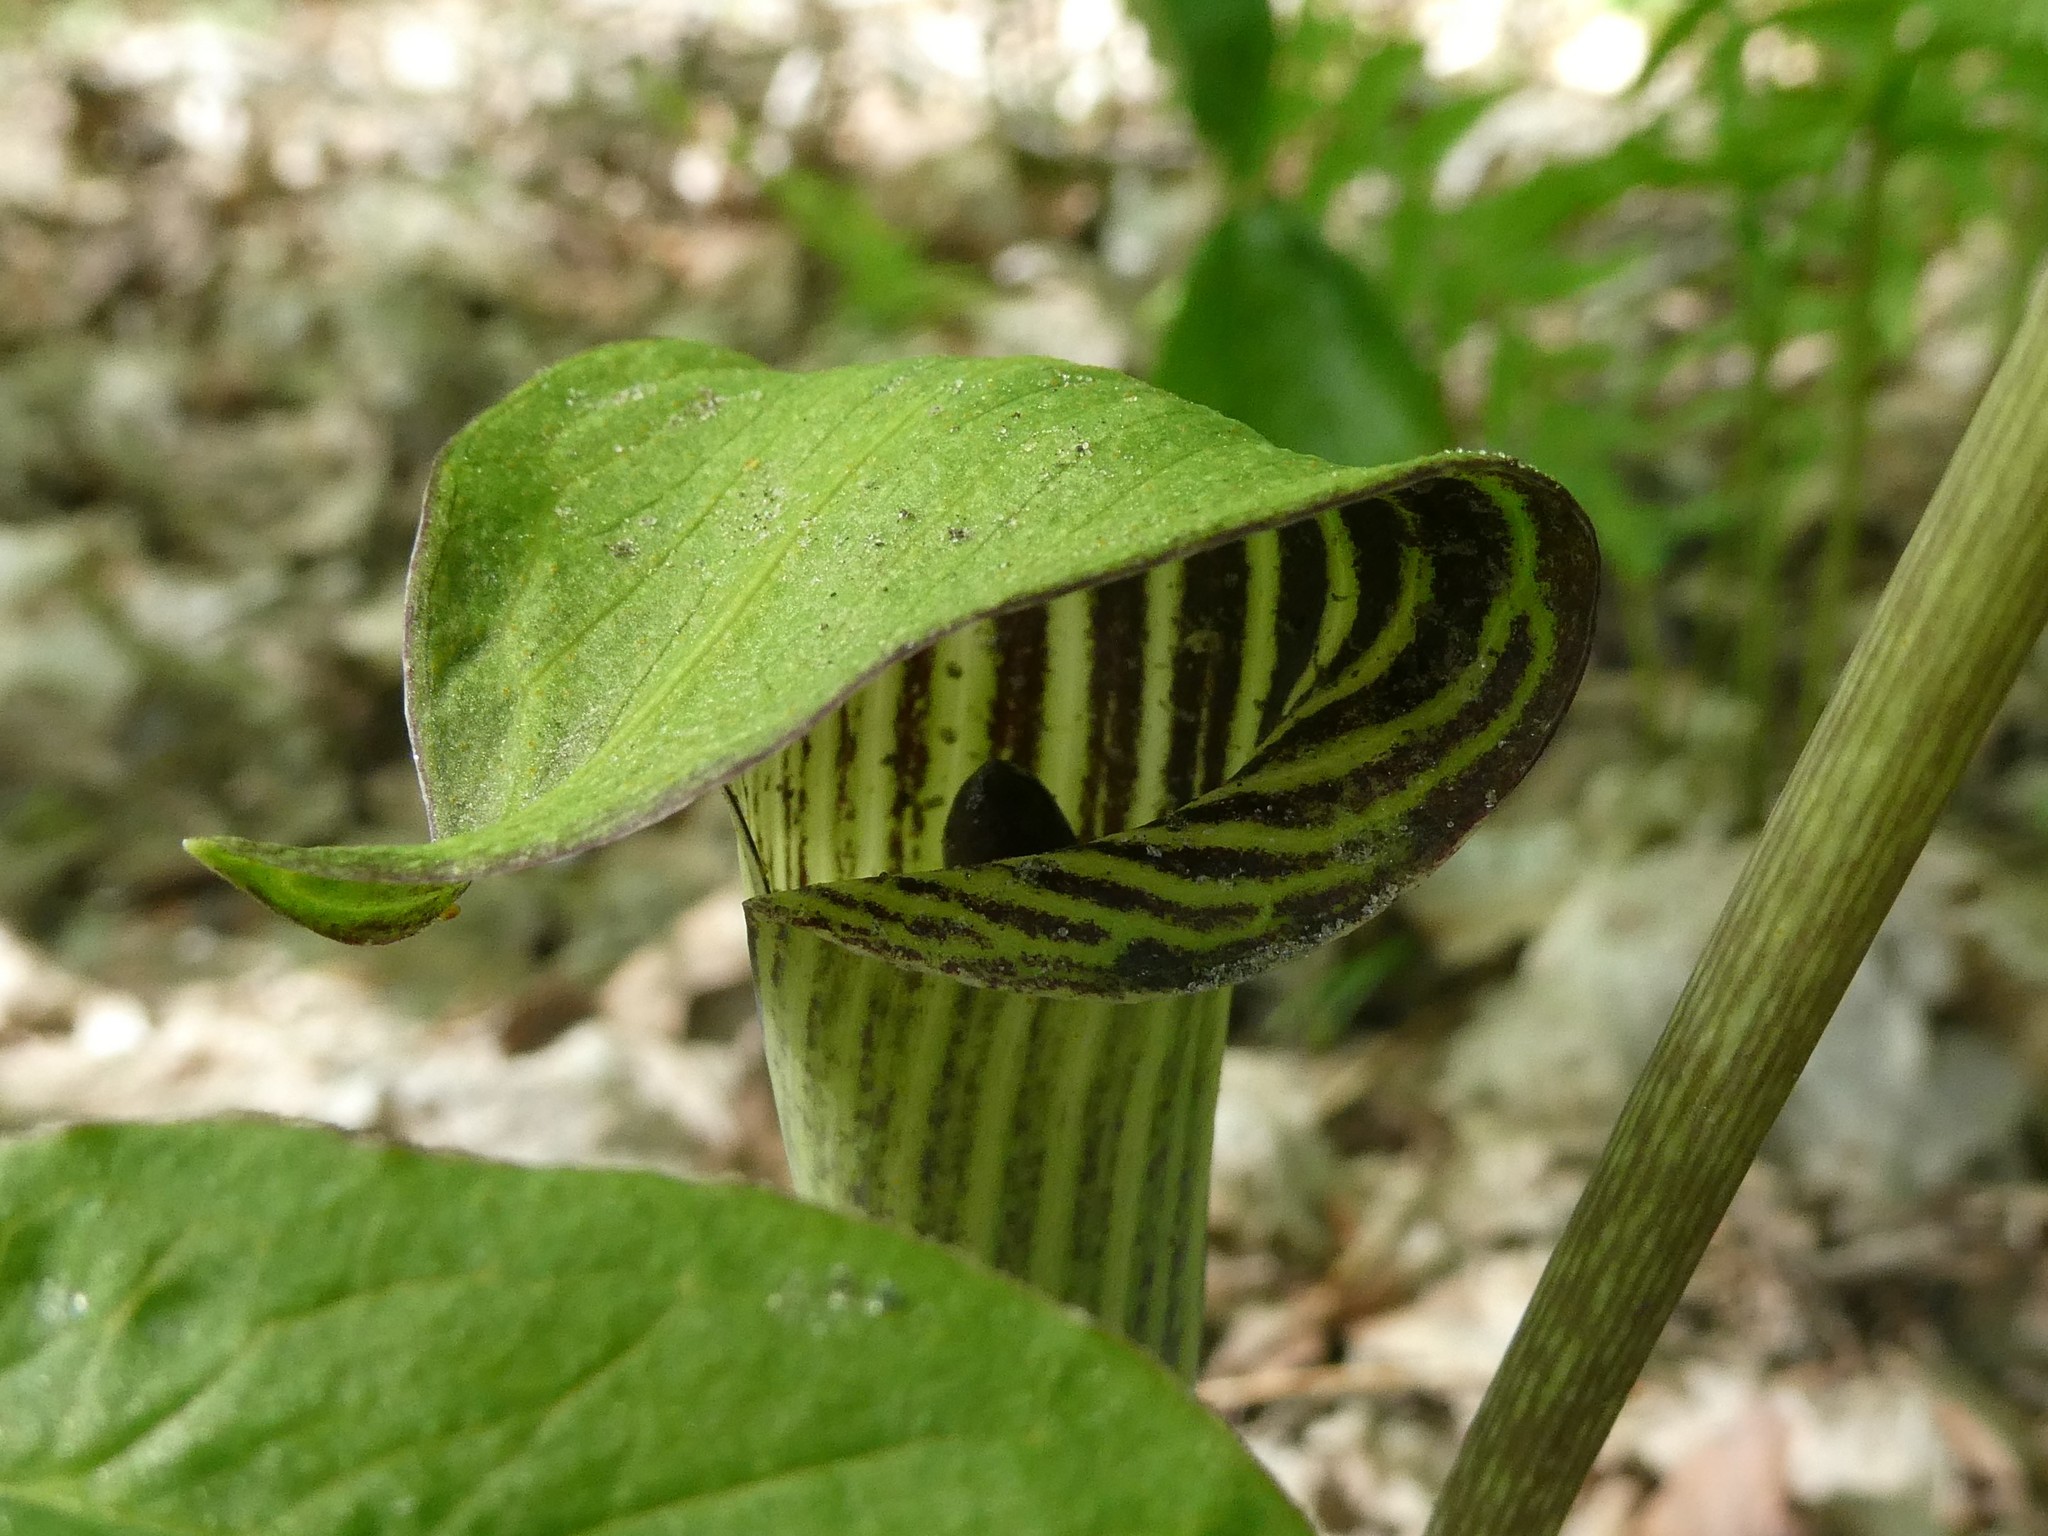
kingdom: Plantae
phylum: Tracheophyta
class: Liliopsida
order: Alismatales
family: Araceae
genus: Arisaema
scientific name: Arisaema triphyllum
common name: Jack-in-the-pulpit
